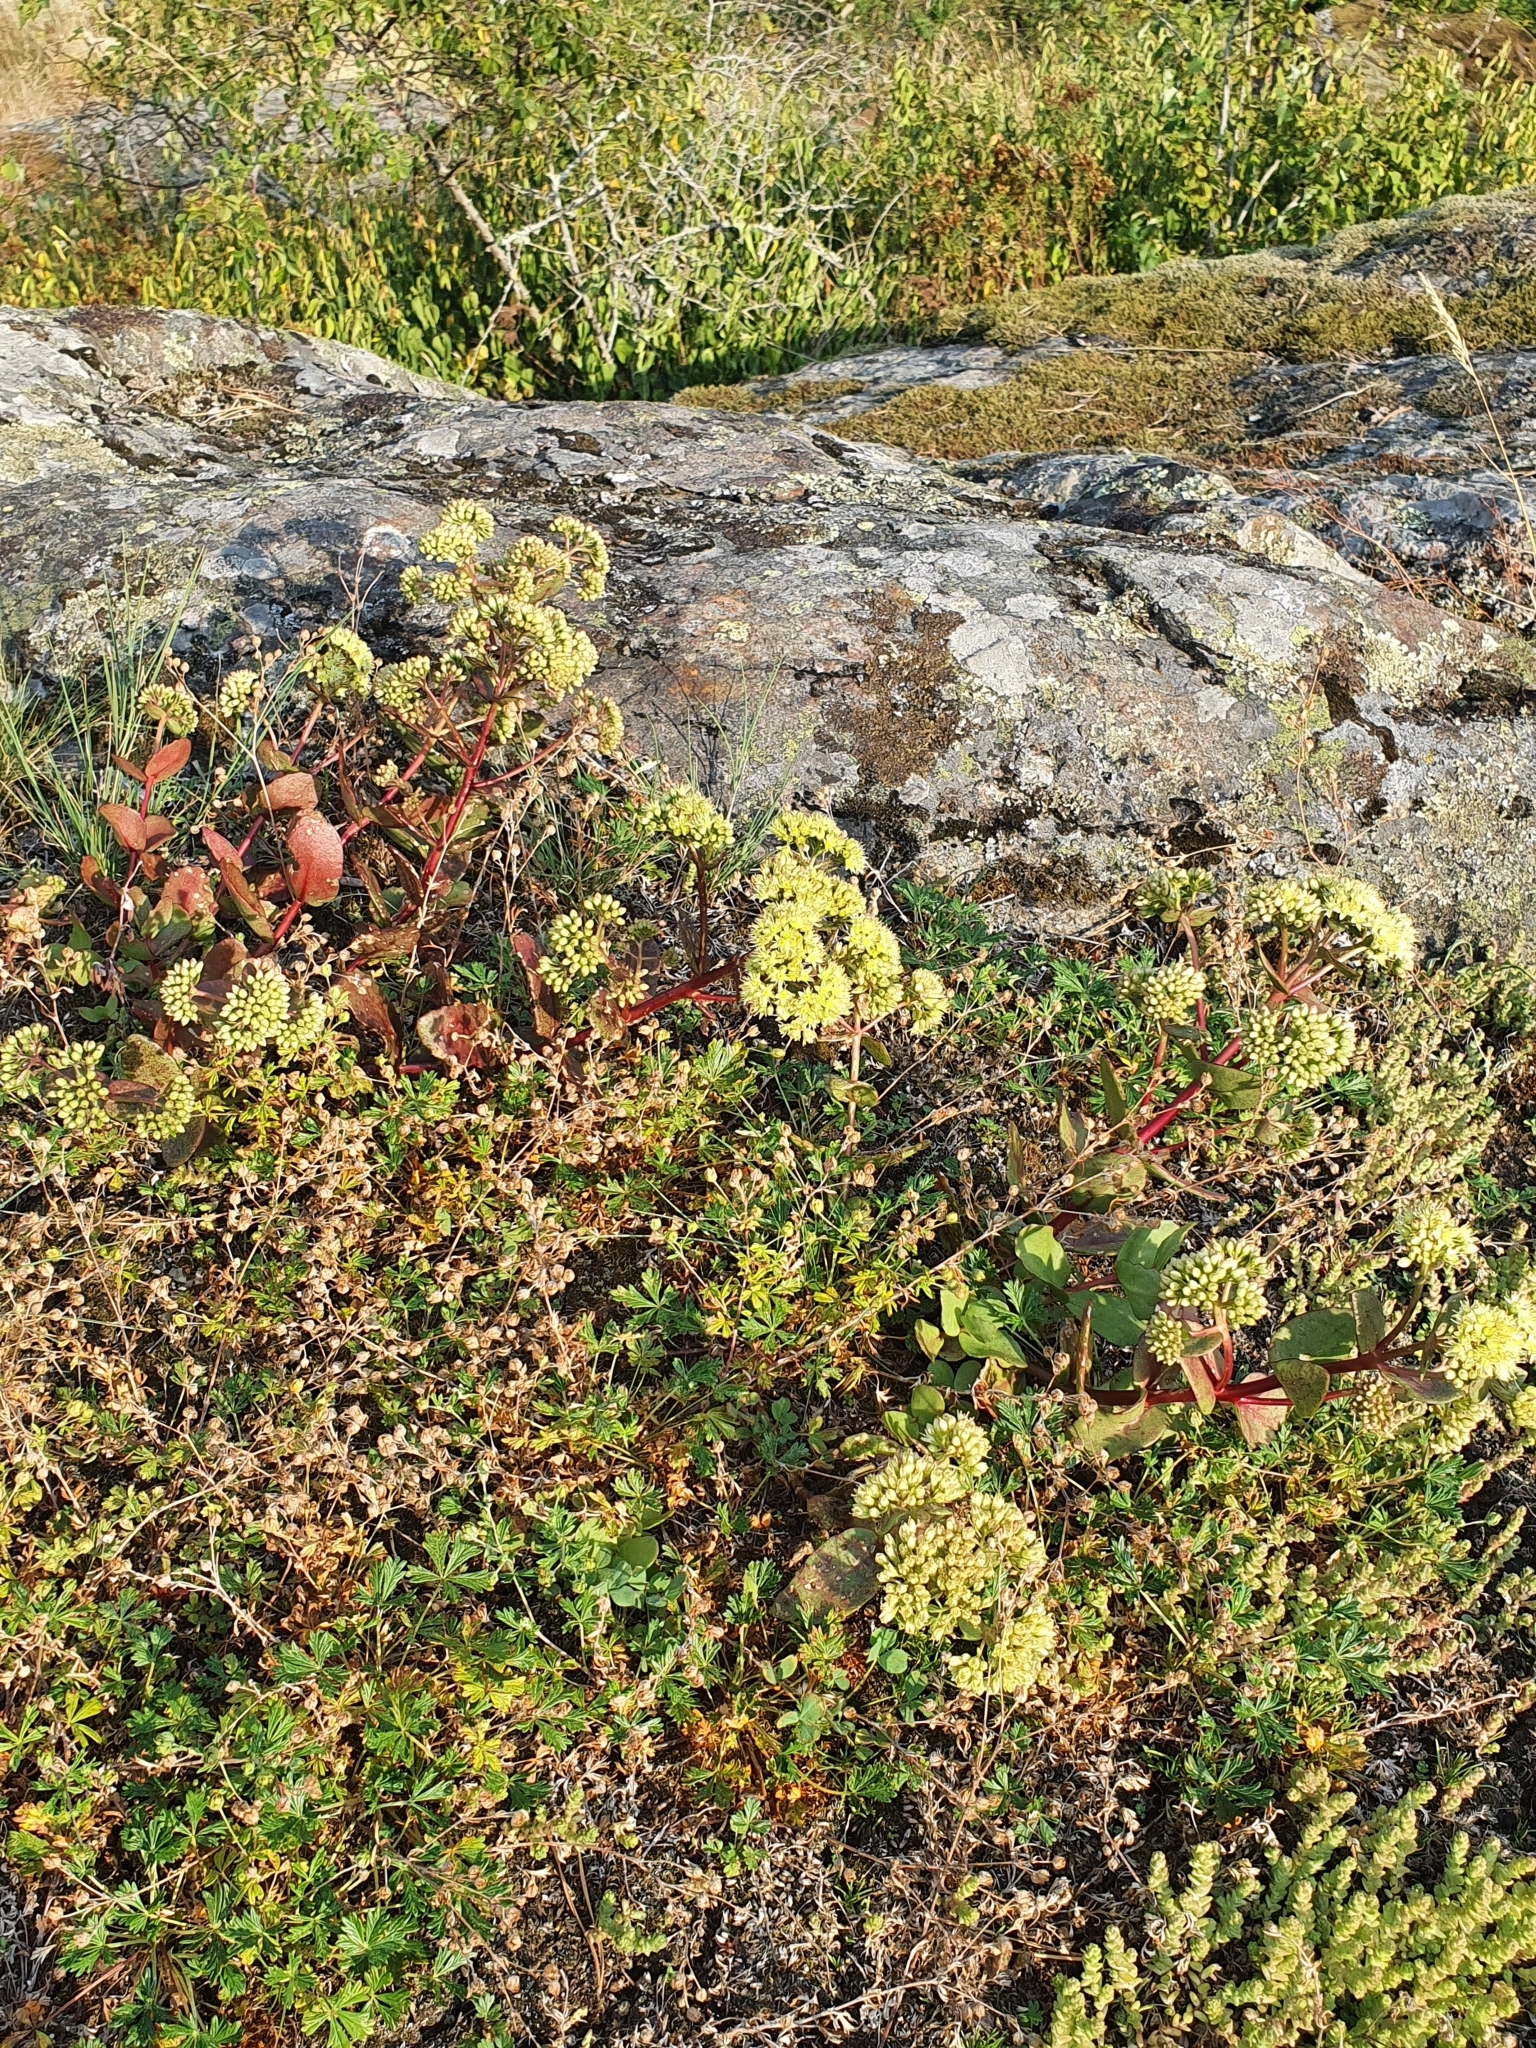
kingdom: Plantae
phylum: Tracheophyta
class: Magnoliopsida
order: Saxifragales
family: Crassulaceae
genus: Hylotelephium
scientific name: Hylotelephium maximum
